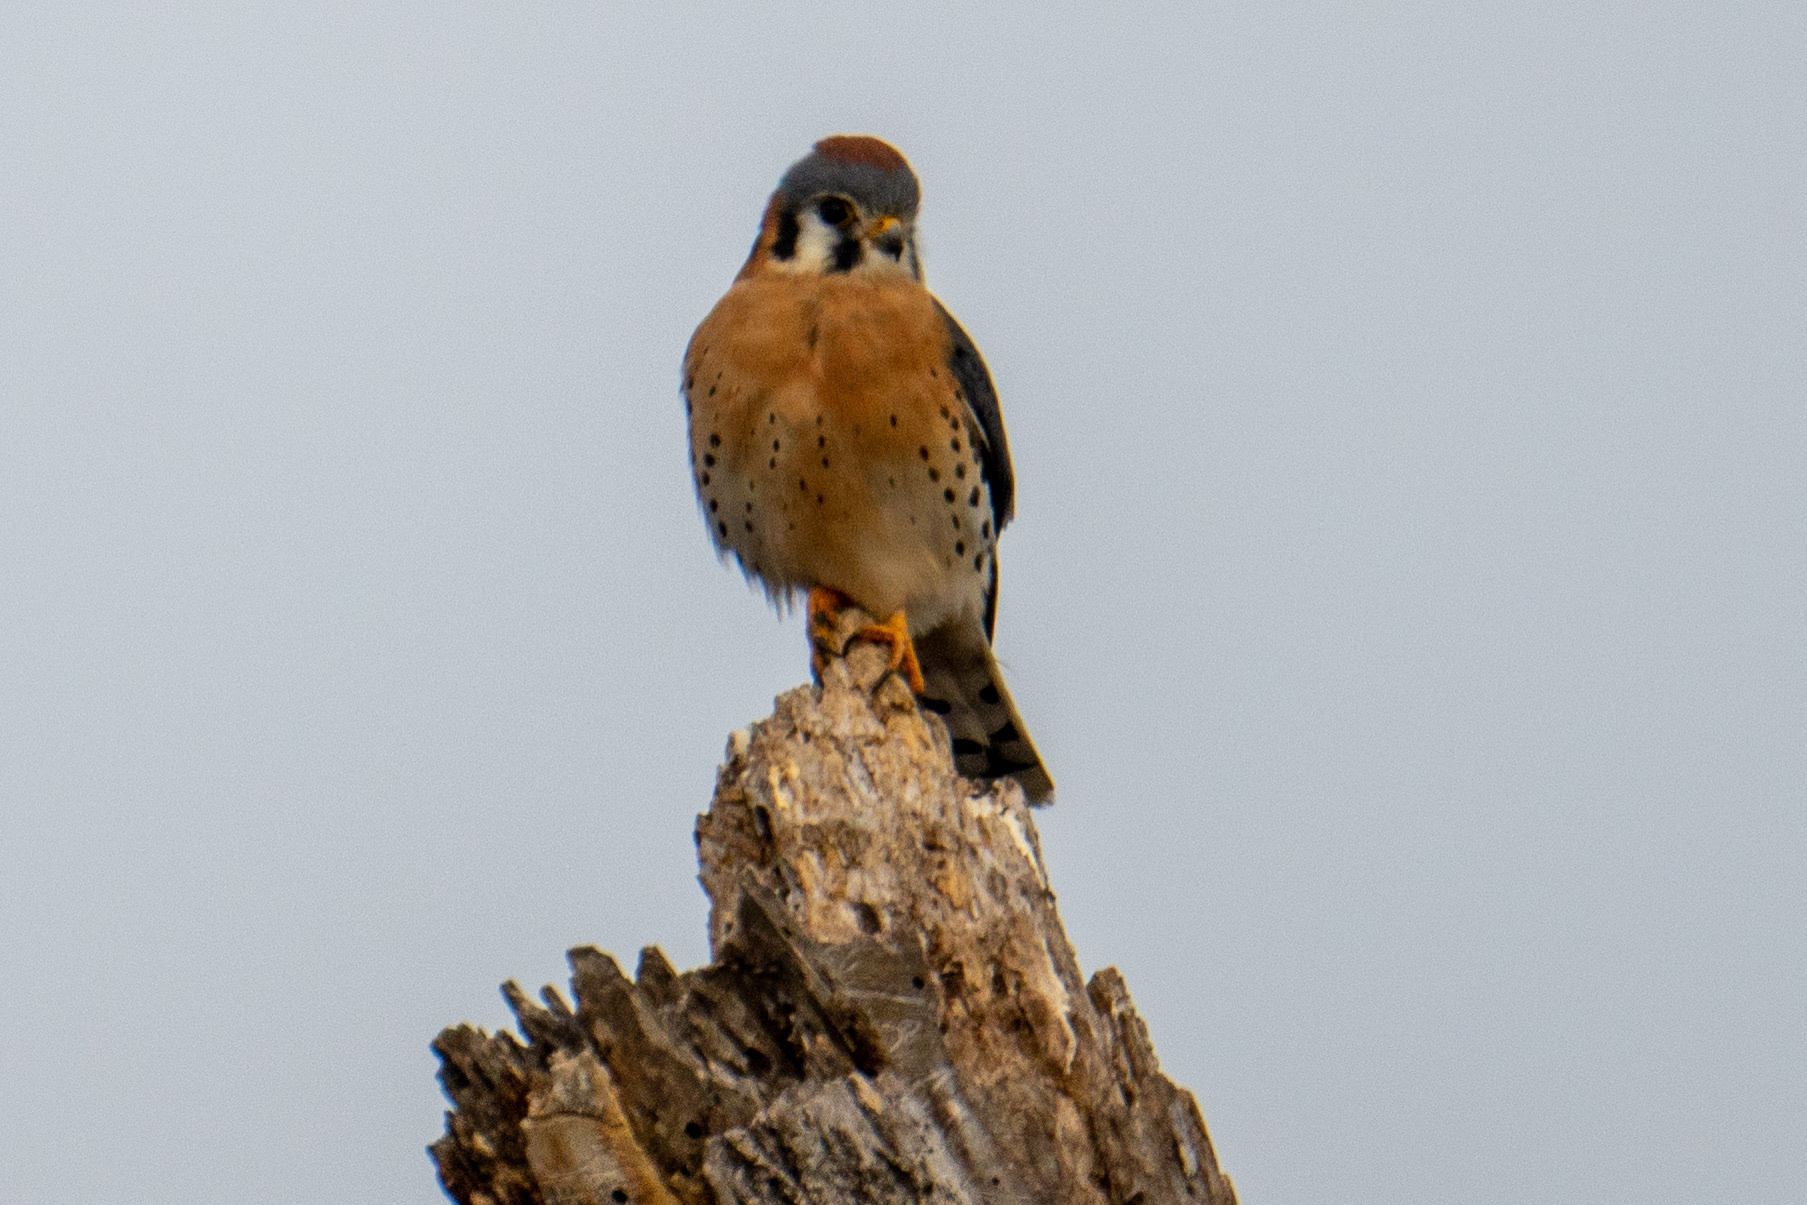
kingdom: Animalia
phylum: Chordata
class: Aves
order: Falconiformes
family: Falconidae
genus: Falco
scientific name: Falco sparverius
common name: American kestrel
